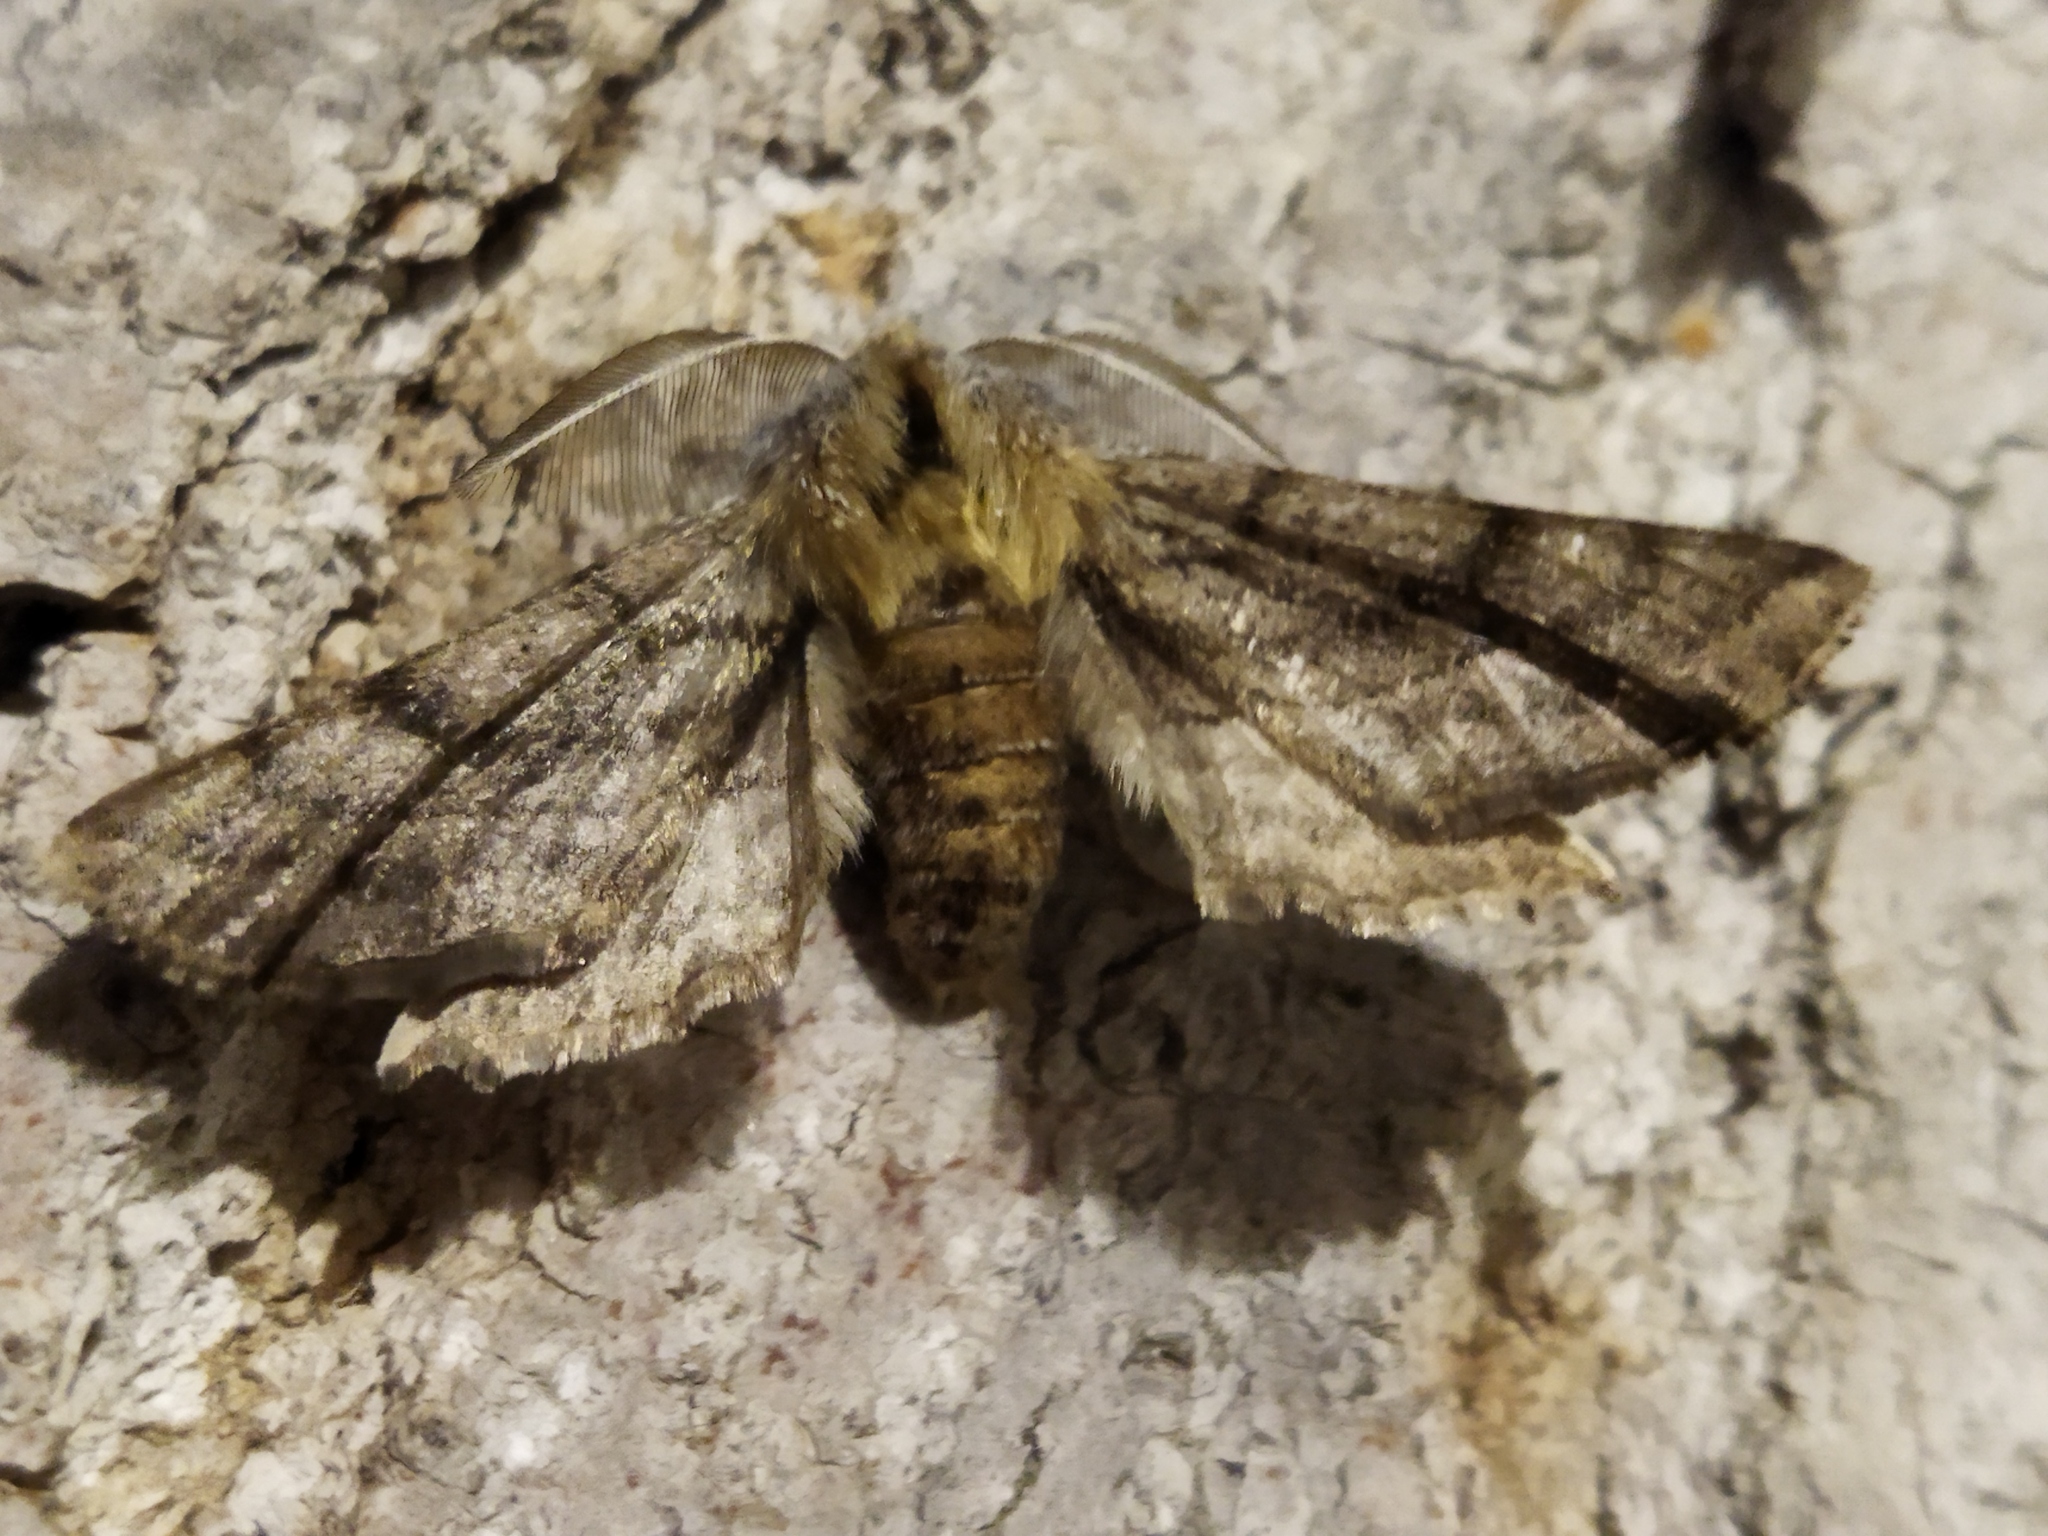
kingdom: Animalia
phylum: Arthropoda
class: Insecta
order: Lepidoptera
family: Geometridae
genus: Apochima
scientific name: Apochima flabellaria
